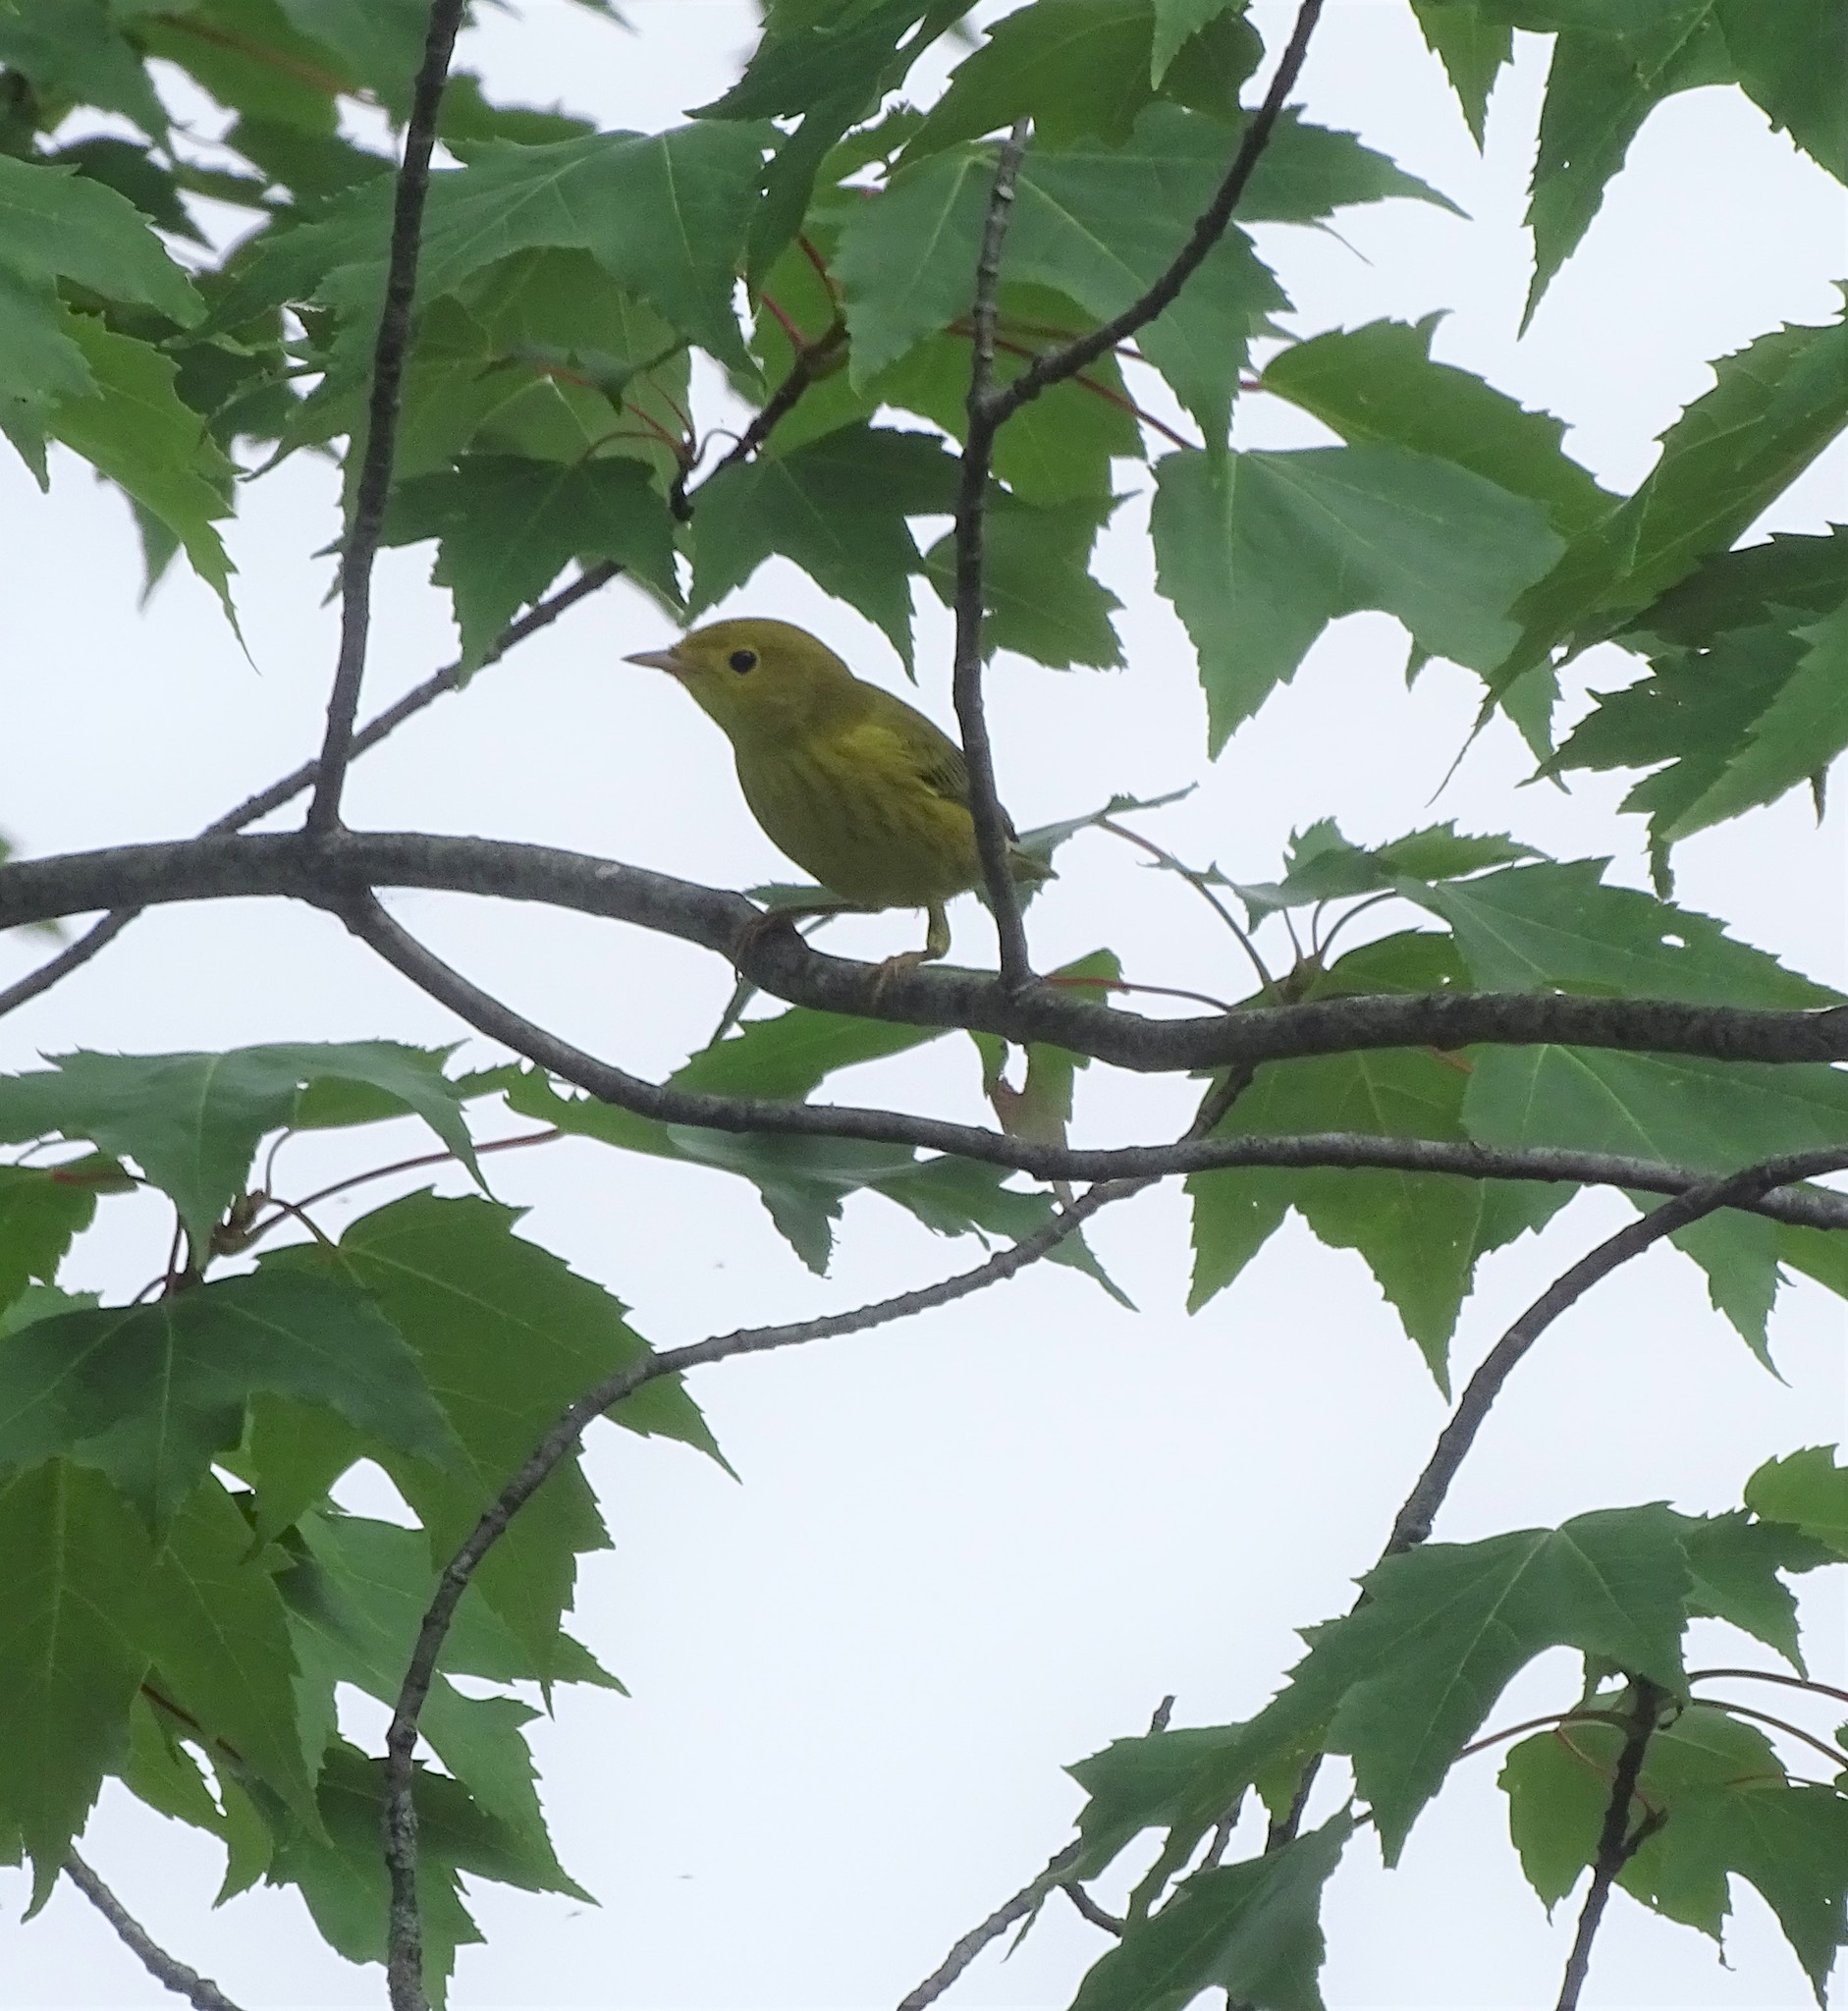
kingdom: Animalia
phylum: Chordata
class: Aves
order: Passeriformes
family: Parulidae
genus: Setophaga
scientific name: Setophaga petechia
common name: Yellow warbler
